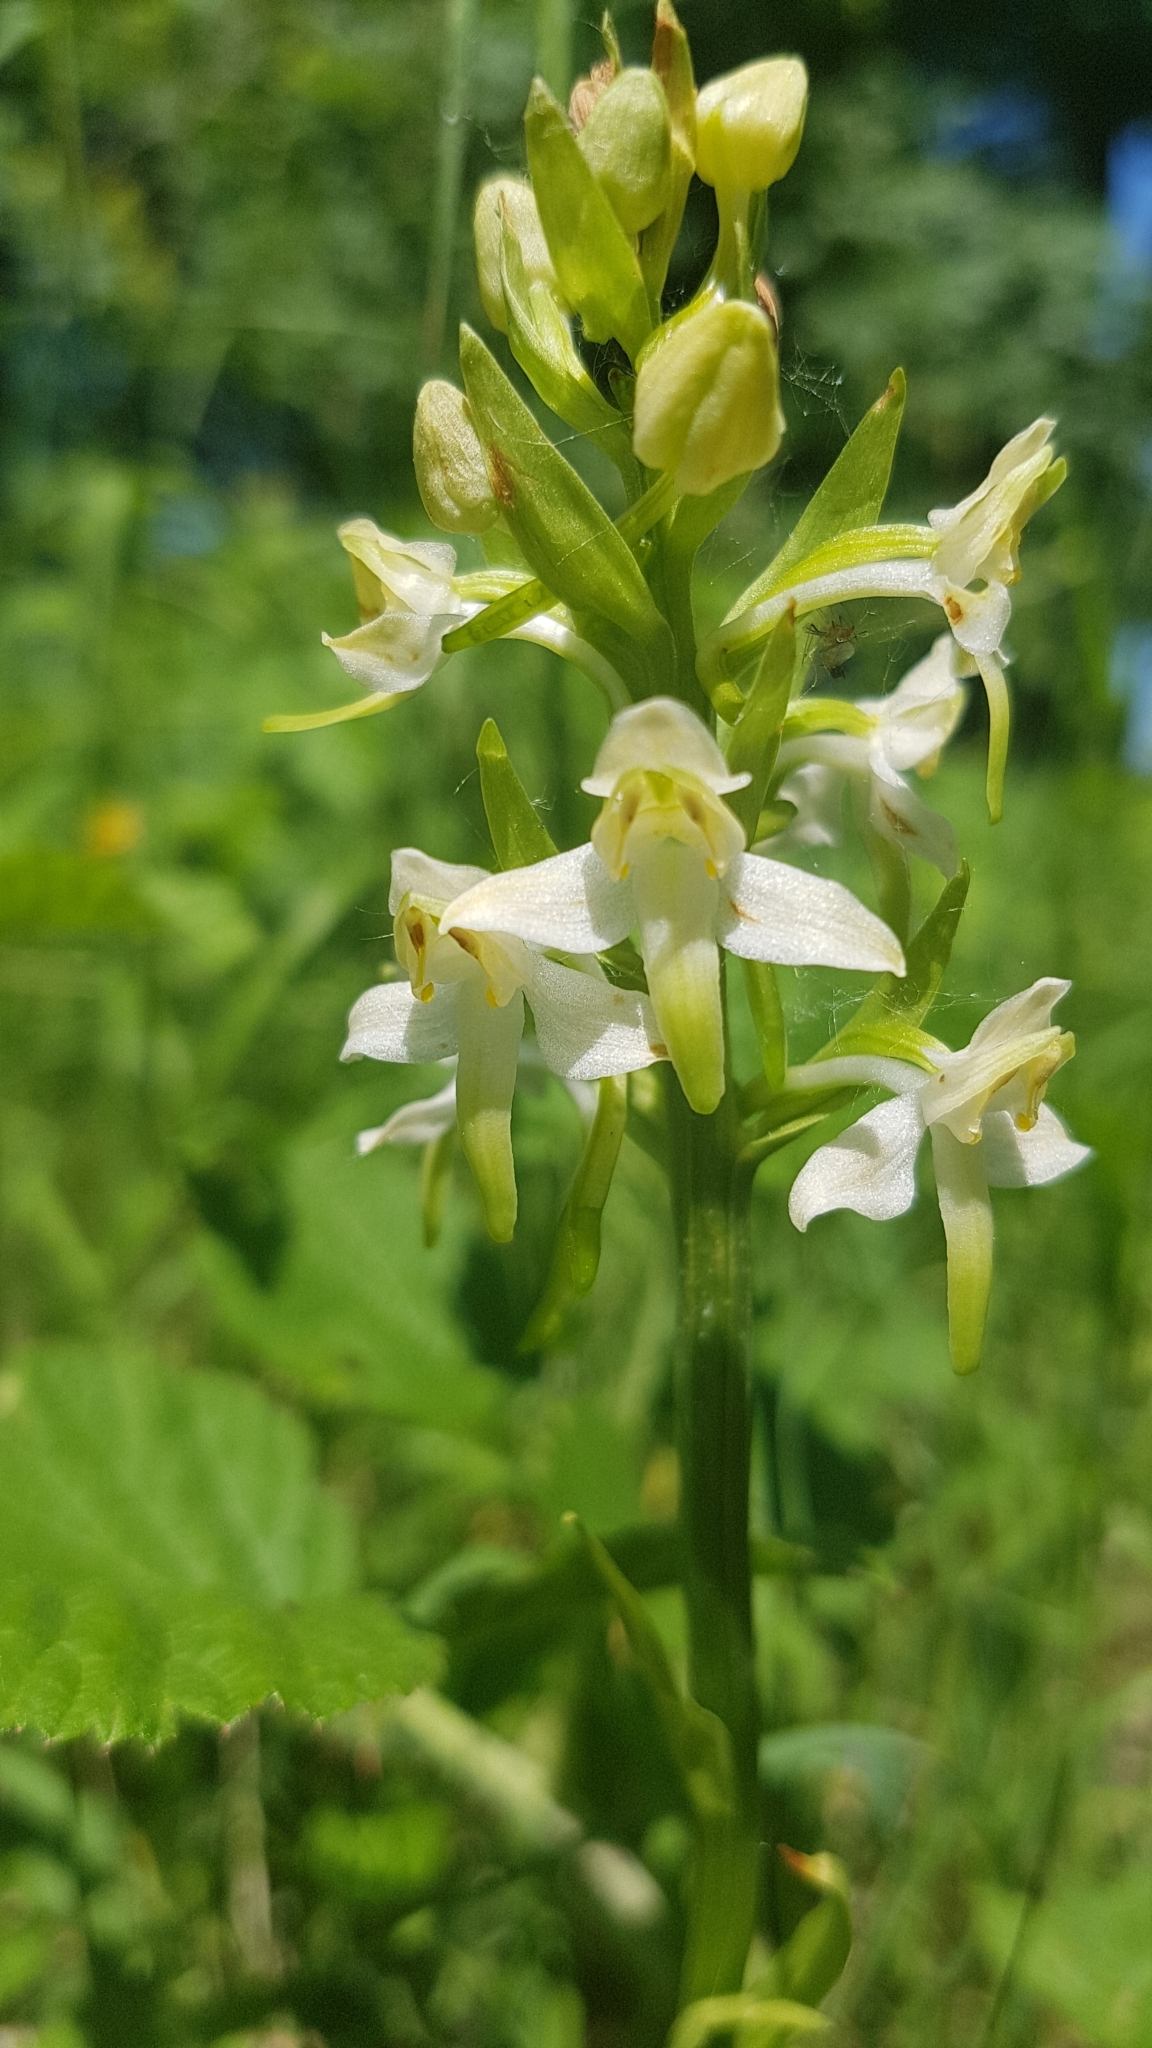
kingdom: Plantae
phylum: Tracheophyta
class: Liliopsida
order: Asparagales
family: Orchidaceae
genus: Platanthera
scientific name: Platanthera chlorantha
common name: Greater butterfly-orchid
